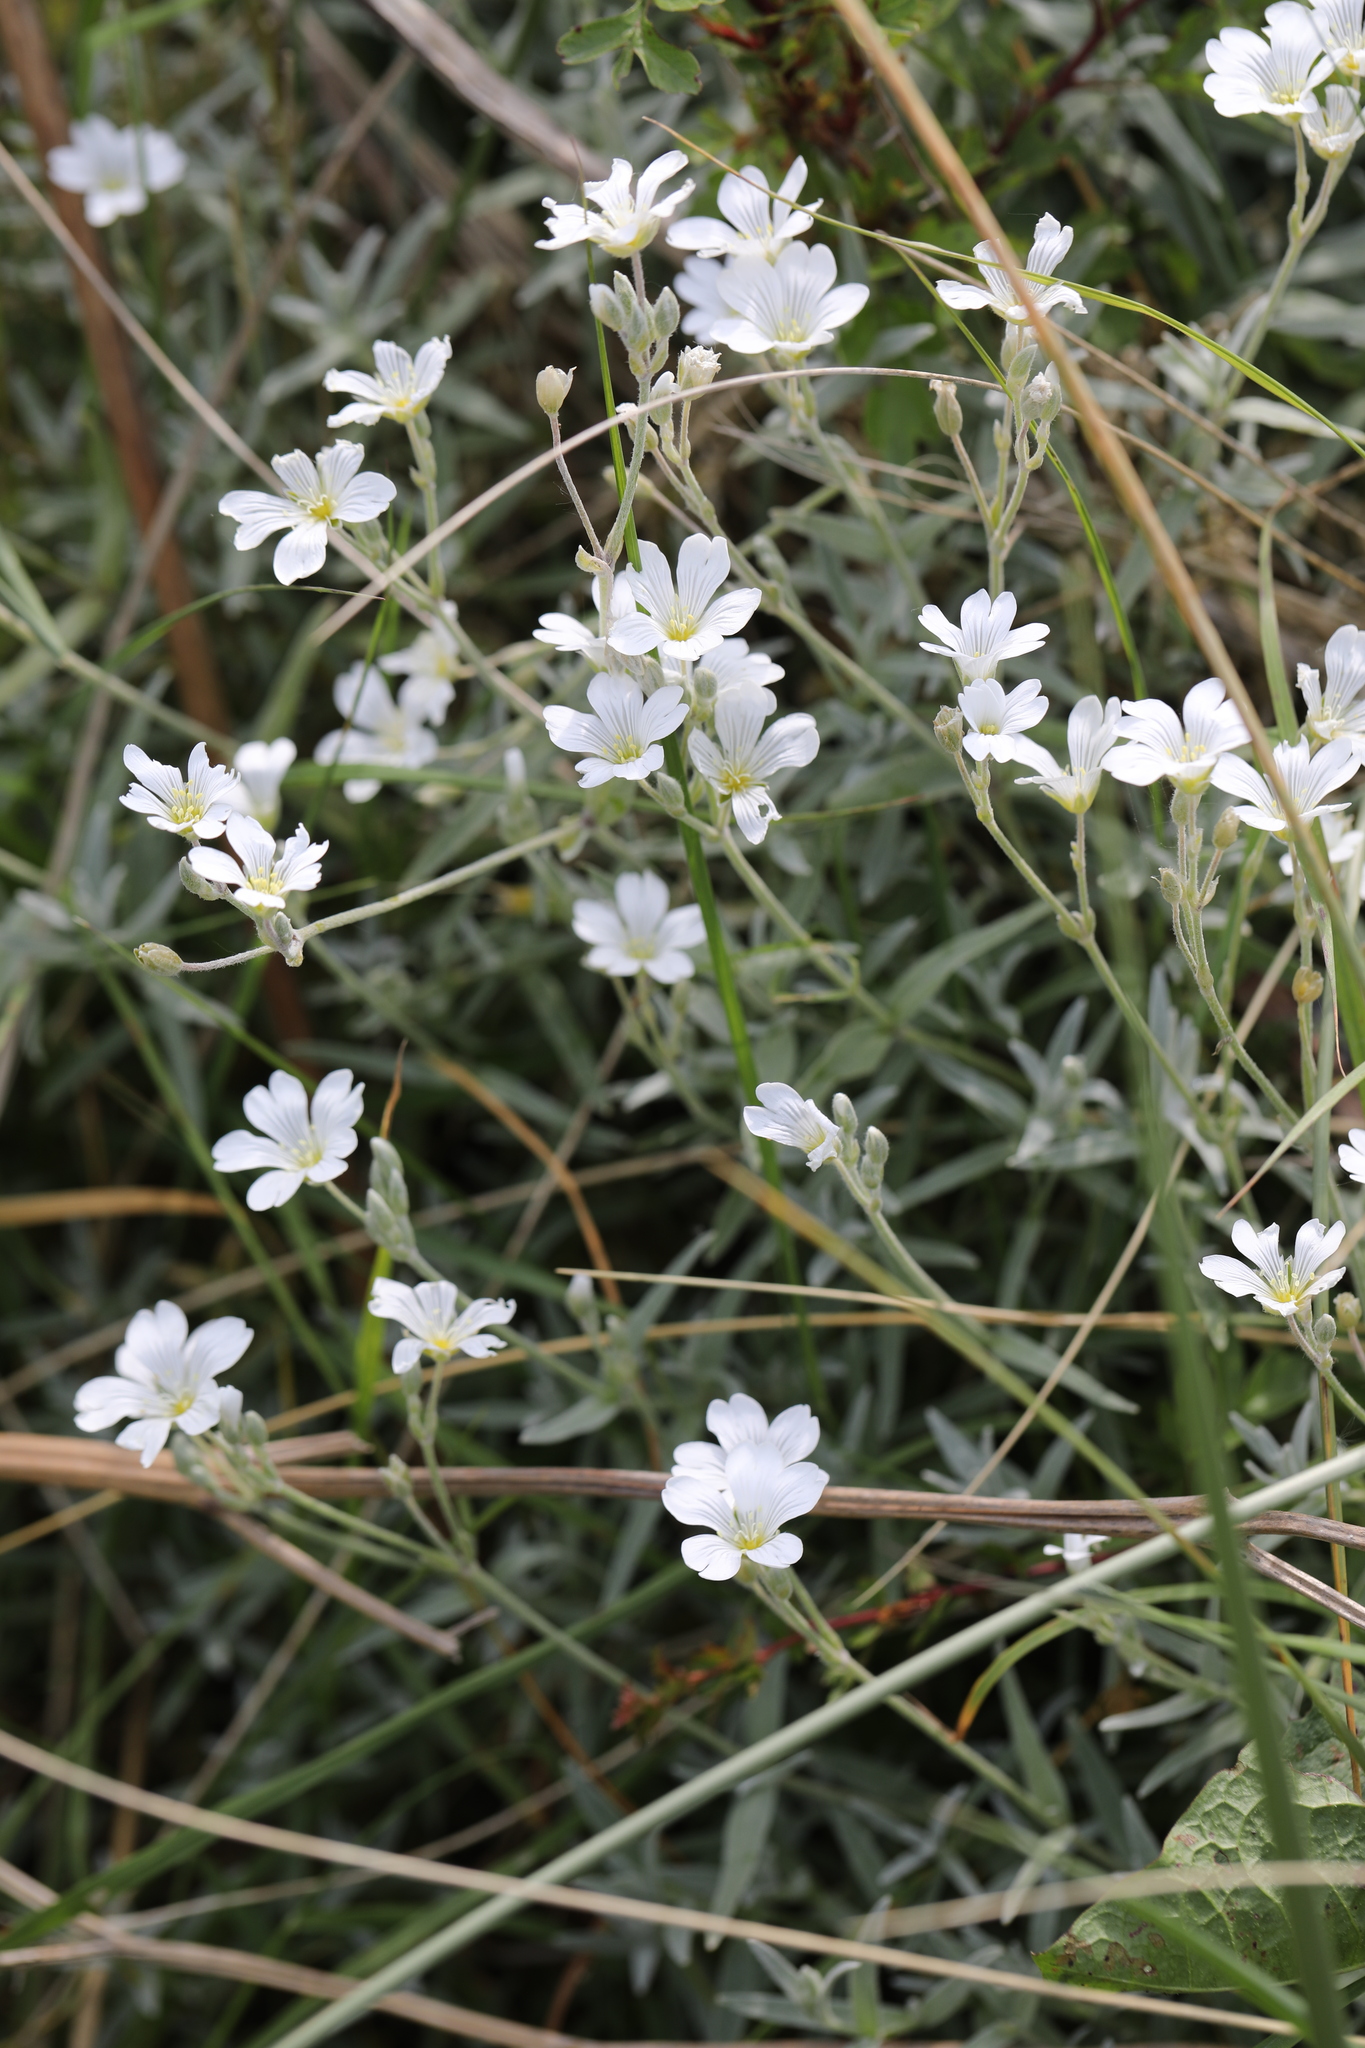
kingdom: Plantae
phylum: Tracheophyta
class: Magnoliopsida
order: Caryophyllales
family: Caryophyllaceae
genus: Cerastium
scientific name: Cerastium tomentosum
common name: Snow-in-summer
